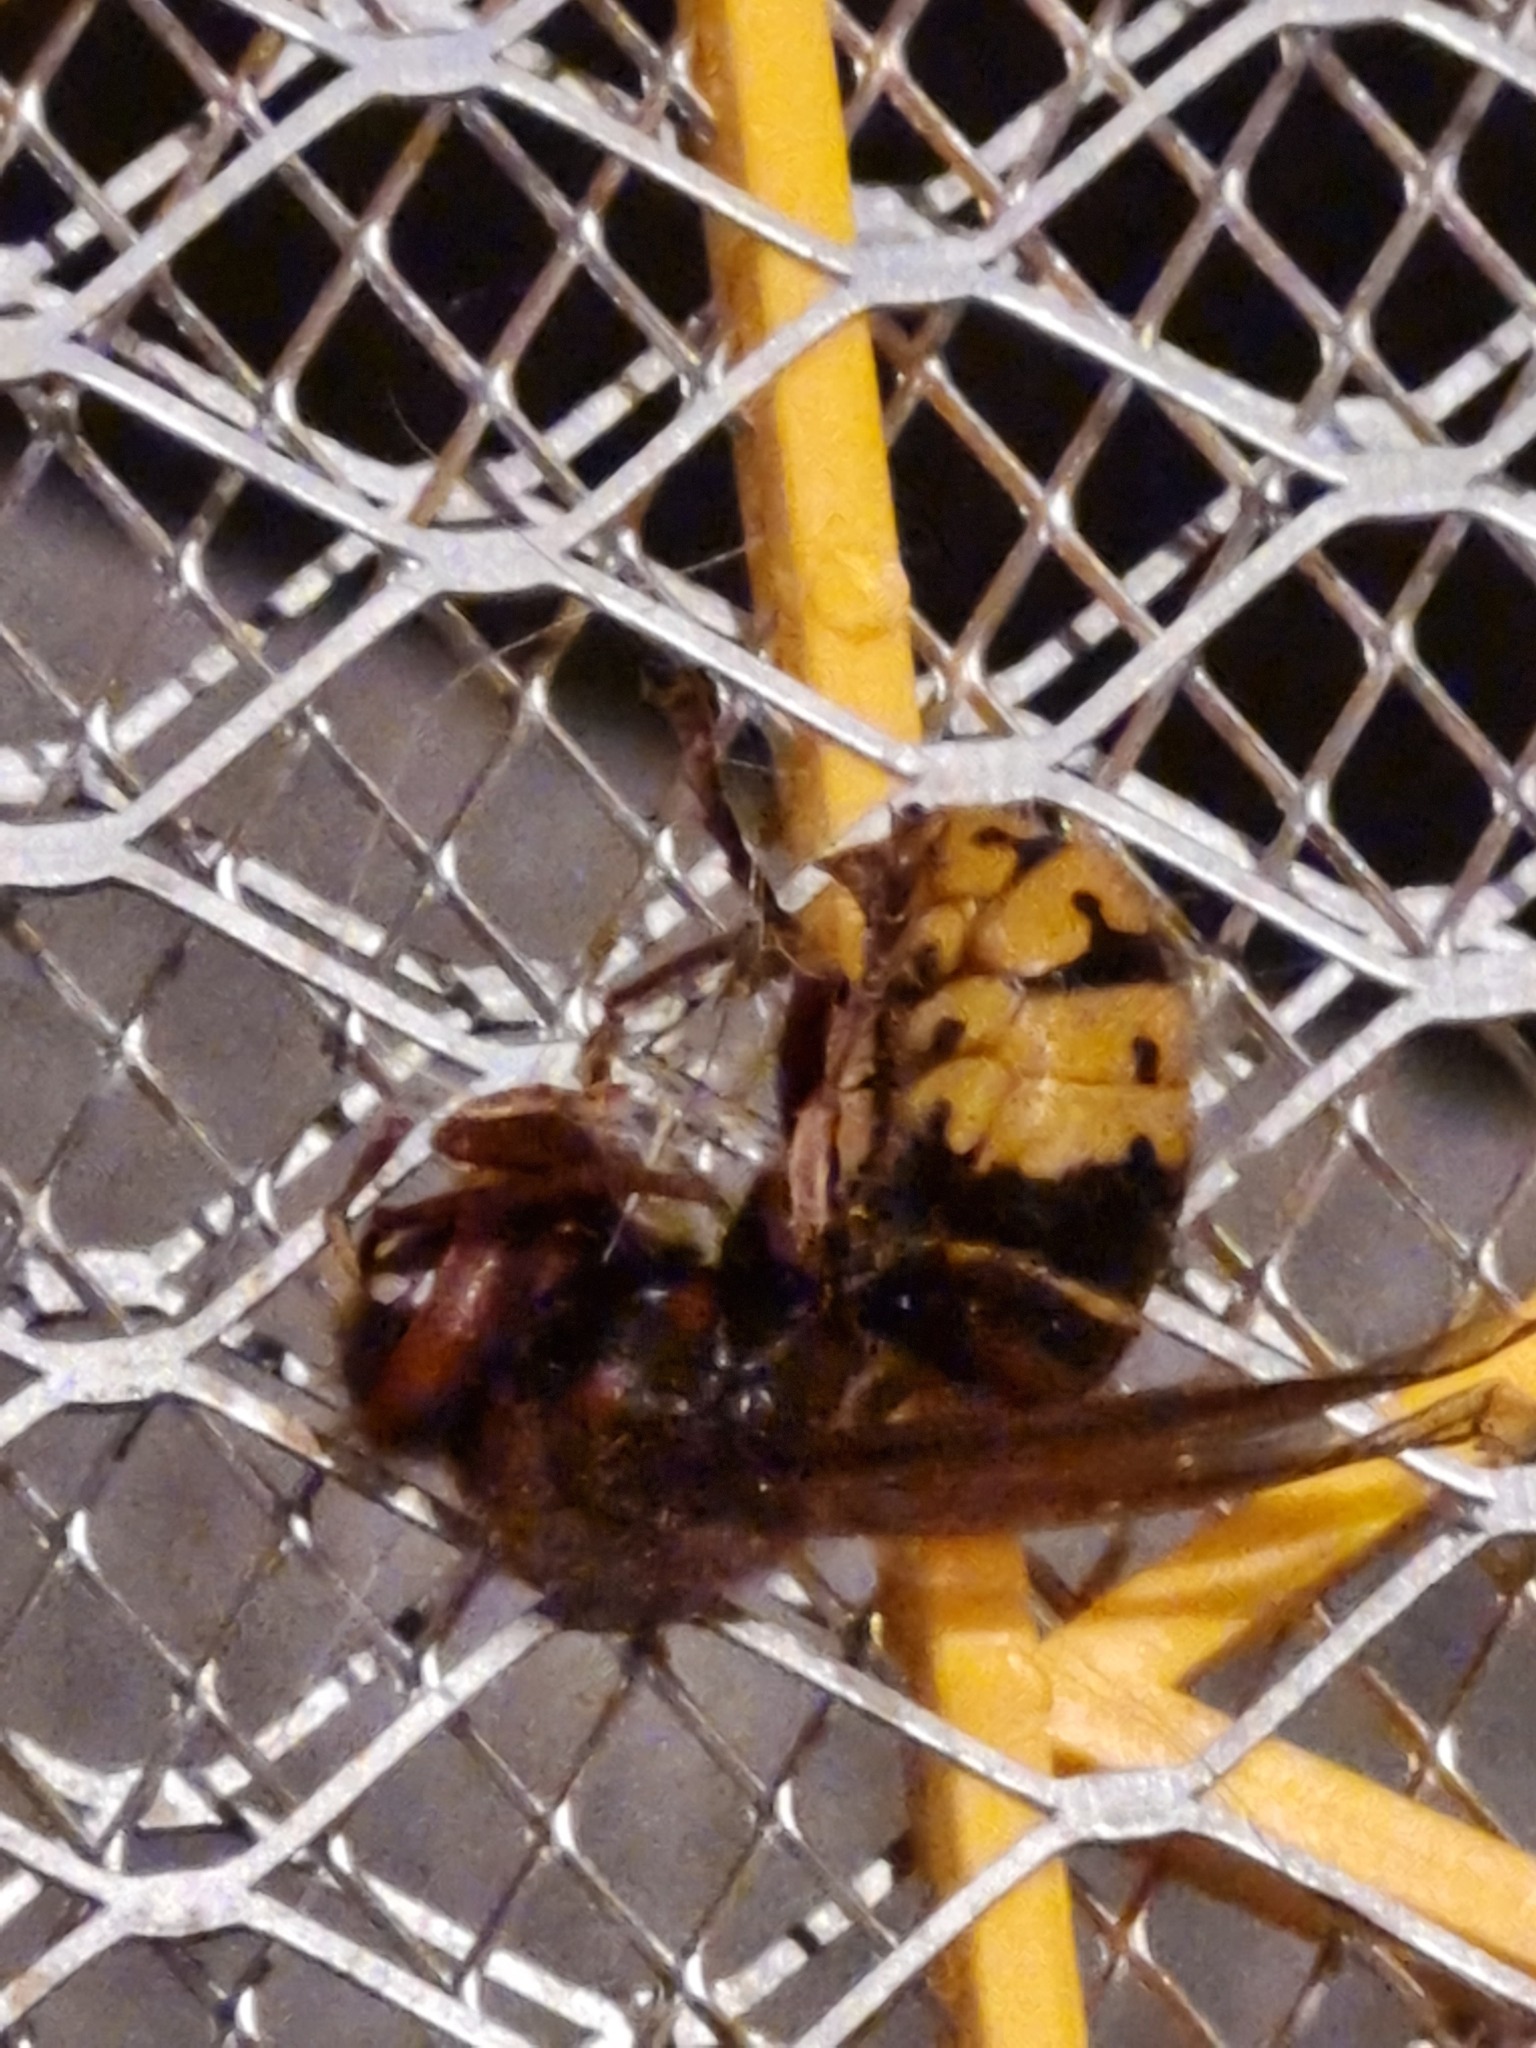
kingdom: Animalia
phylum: Arthropoda
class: Insecta
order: Hymenoptera
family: Vespidae
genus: Vespa
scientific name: Vespa crabro
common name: Hornet
